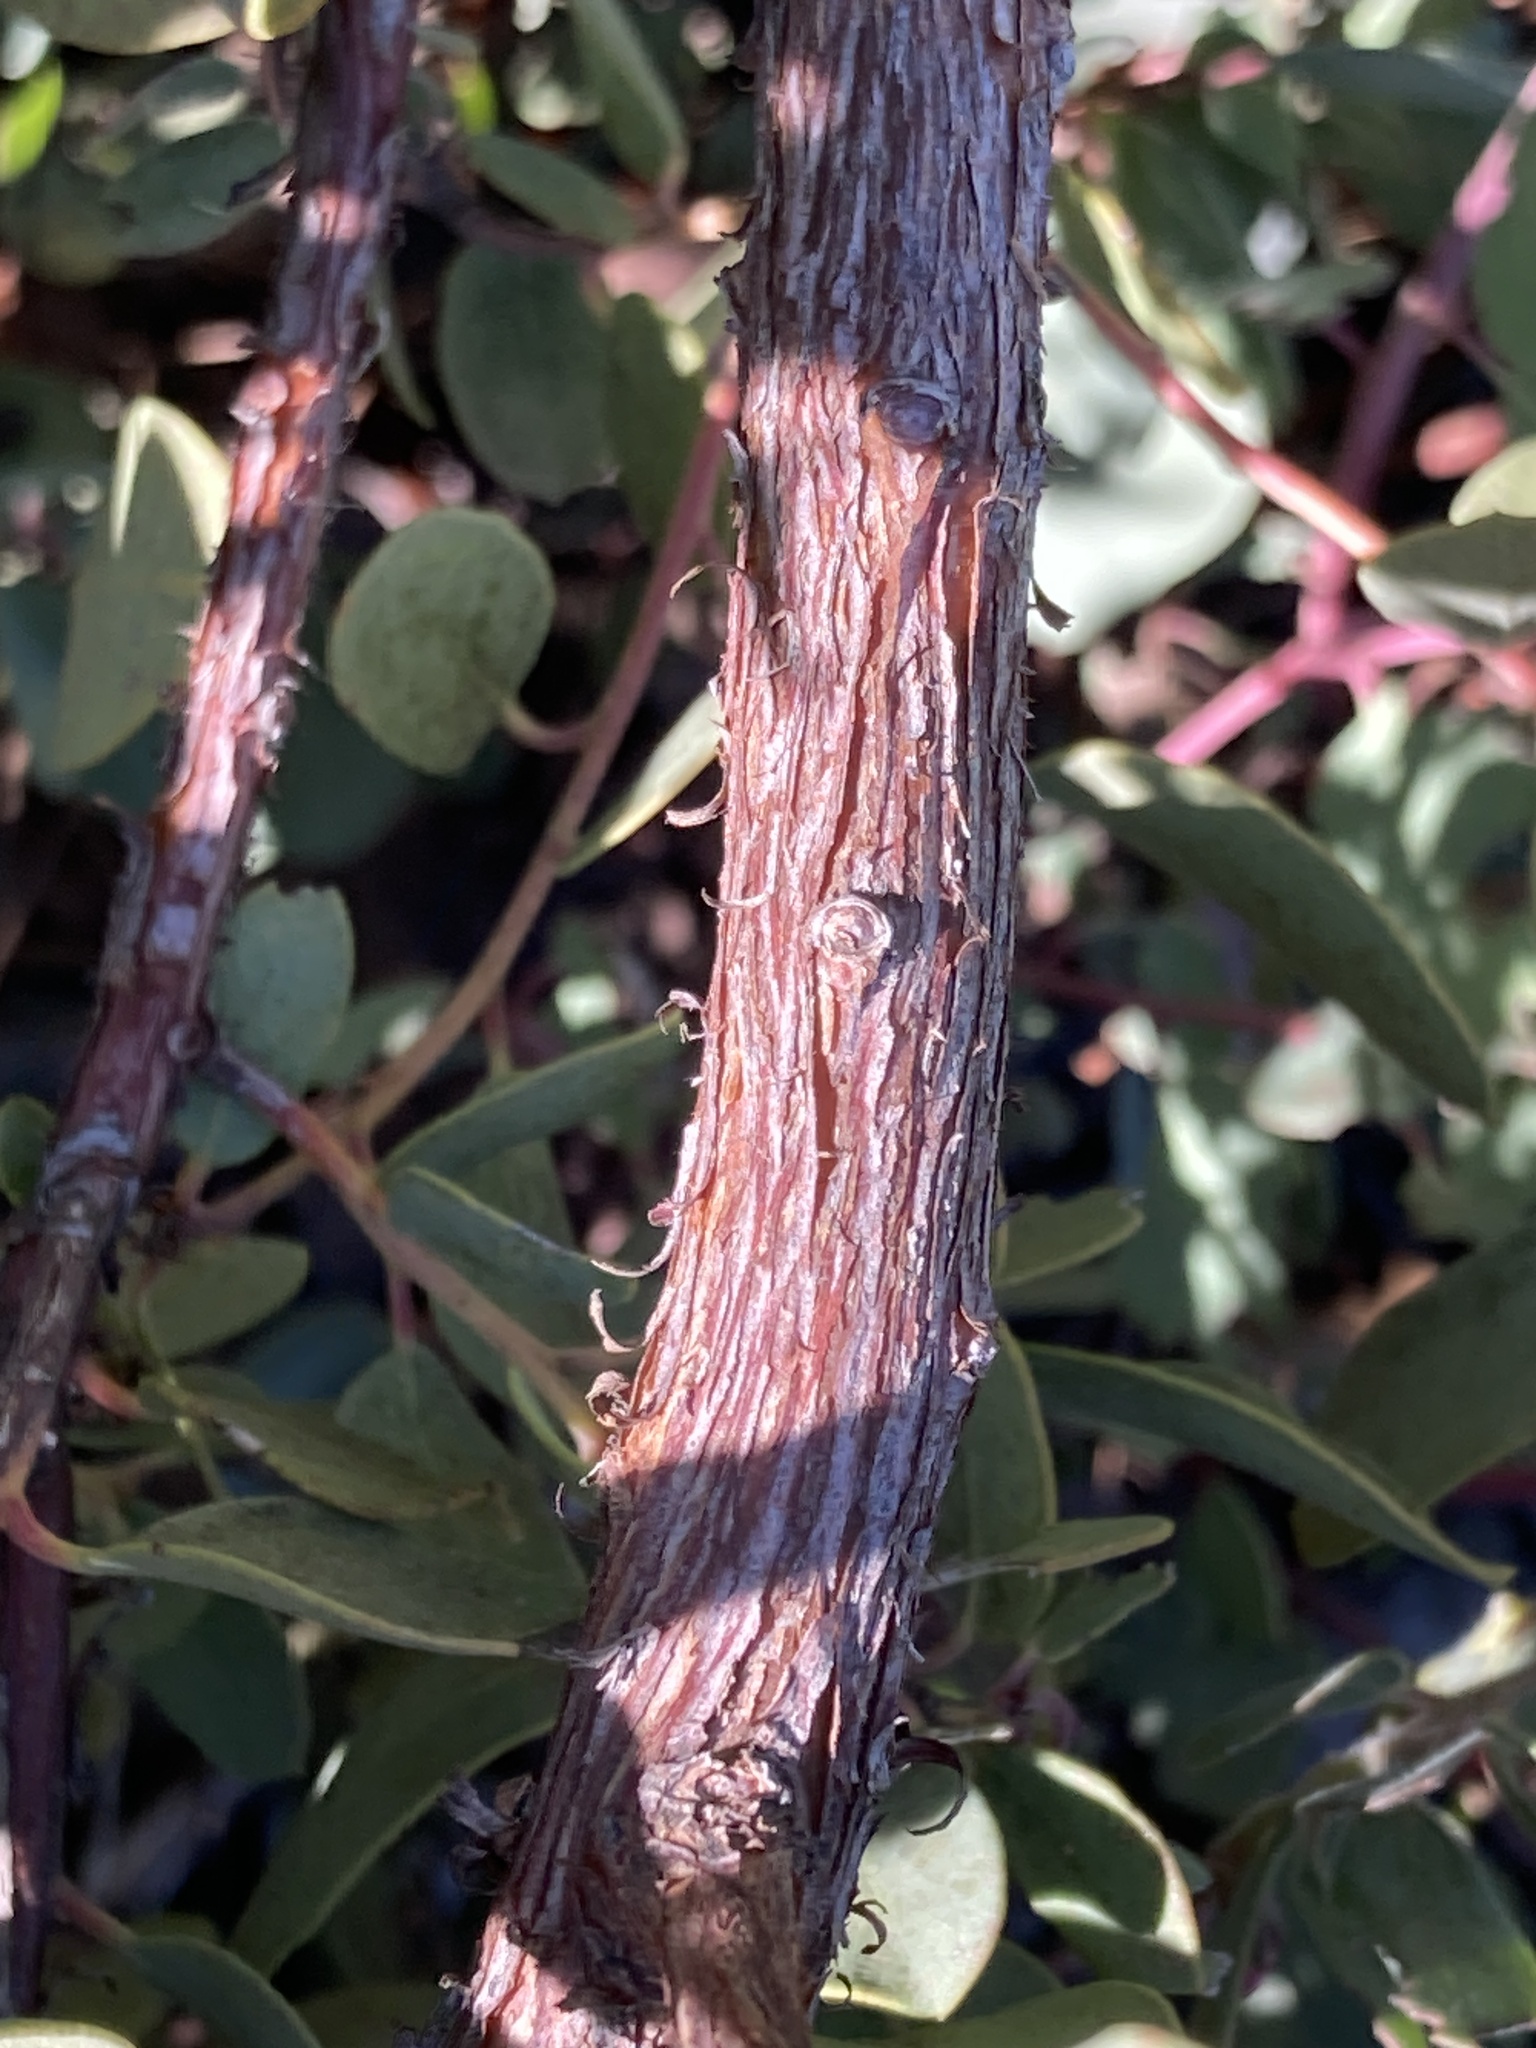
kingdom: Plantae
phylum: Tracheophyta
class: Magnoliopsida
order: Ericales
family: Ericaceae
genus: Arctostaphylos
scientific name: Arctostaphylos nissenana
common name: Nissenan manzanita
